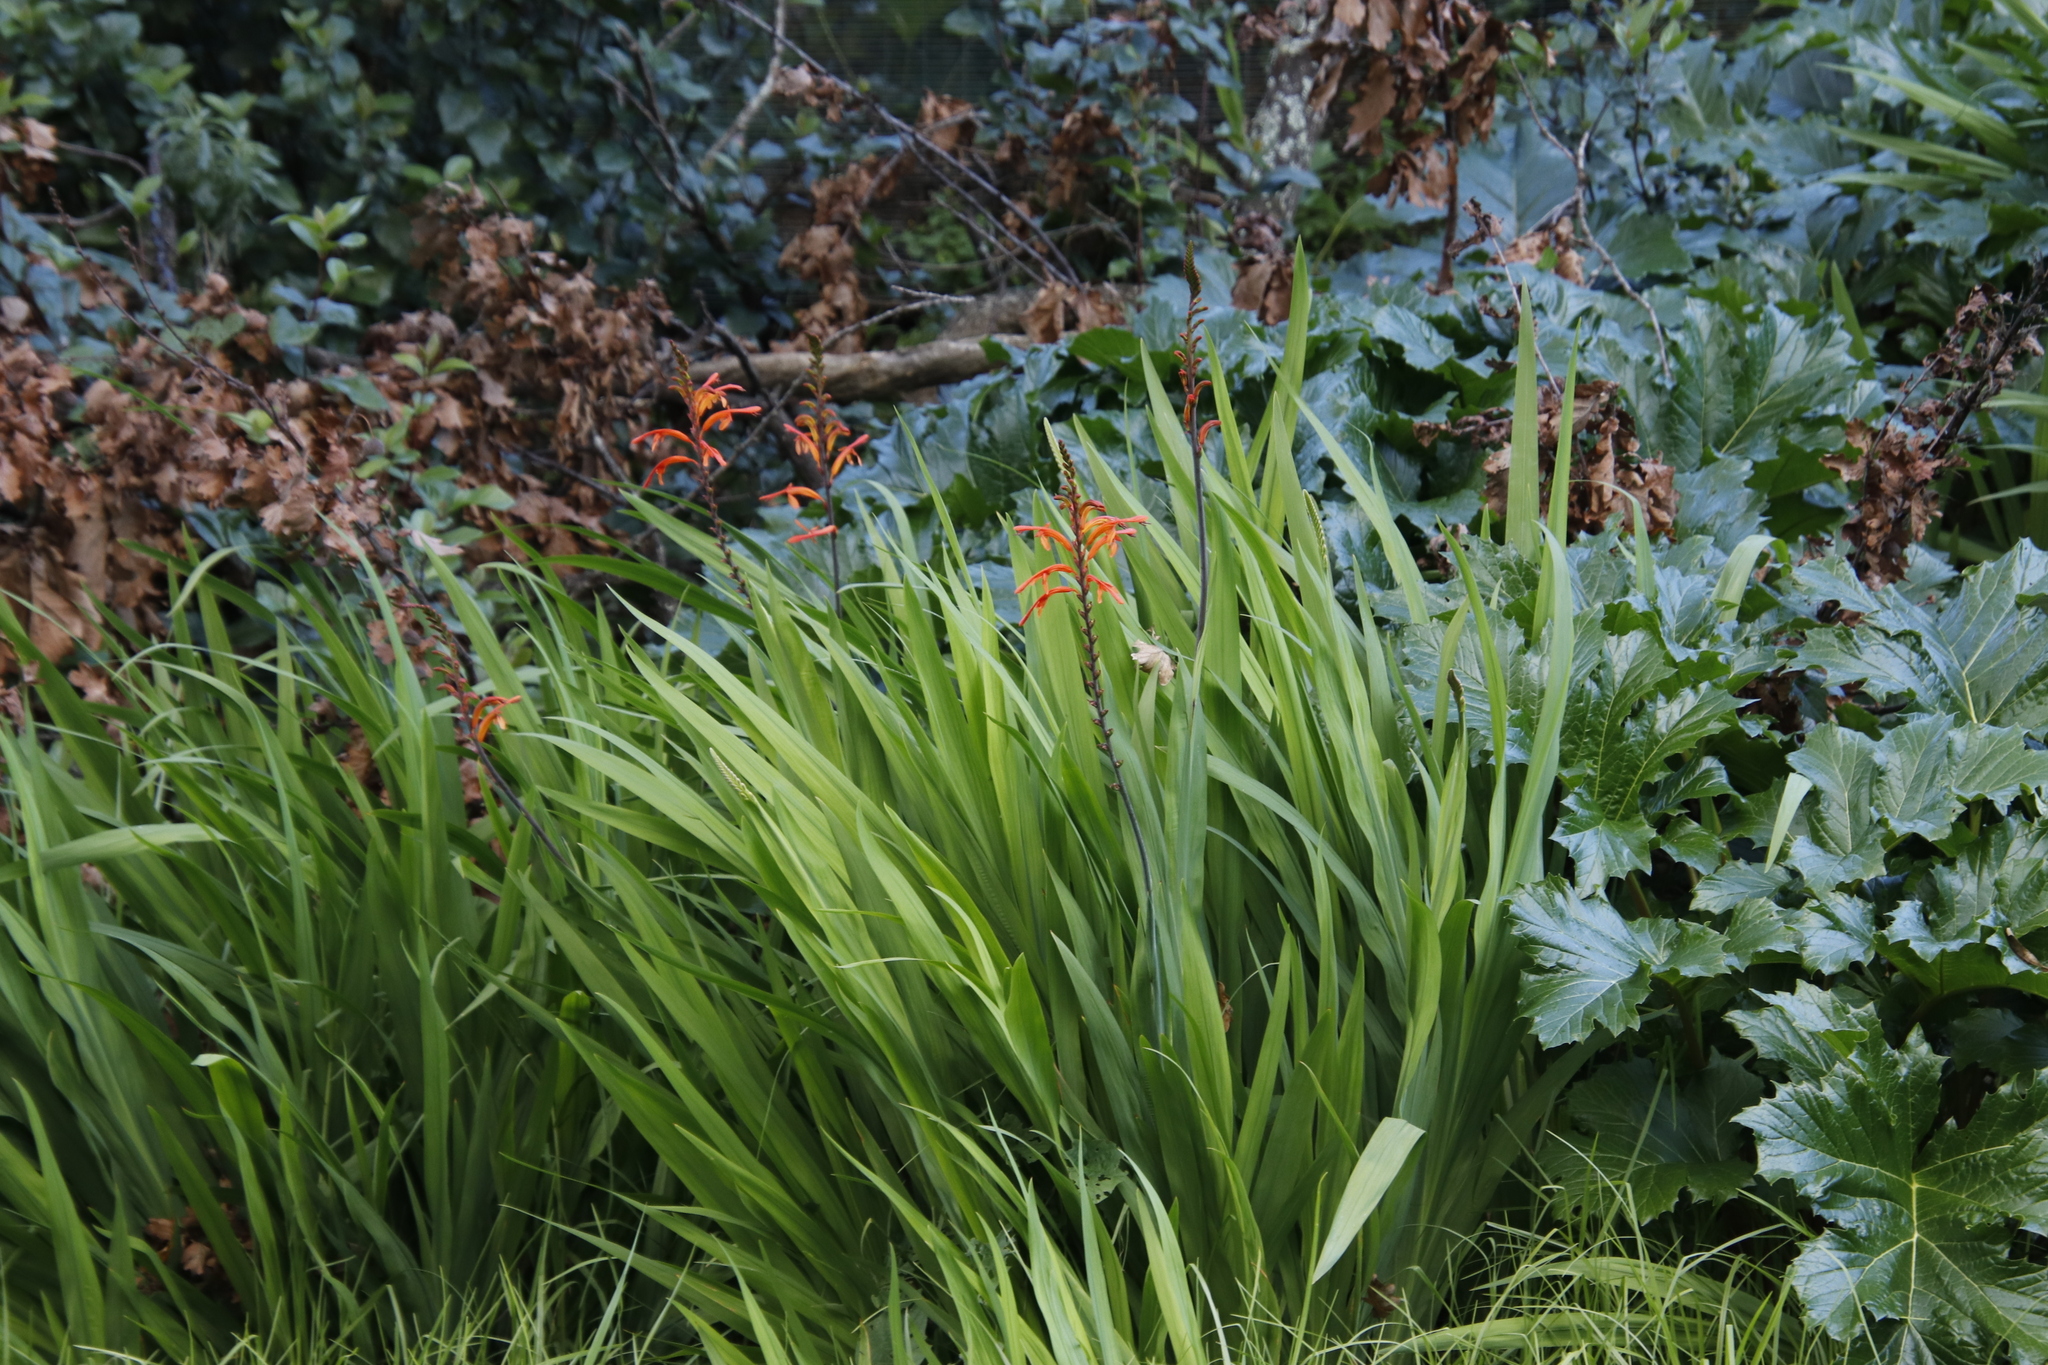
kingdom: Plantae
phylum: Tracheophyta
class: Liliopsida
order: Asparagales
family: Iridaceae
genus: Chasmanthe
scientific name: Chasmanthe floribunda
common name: African cornflag
